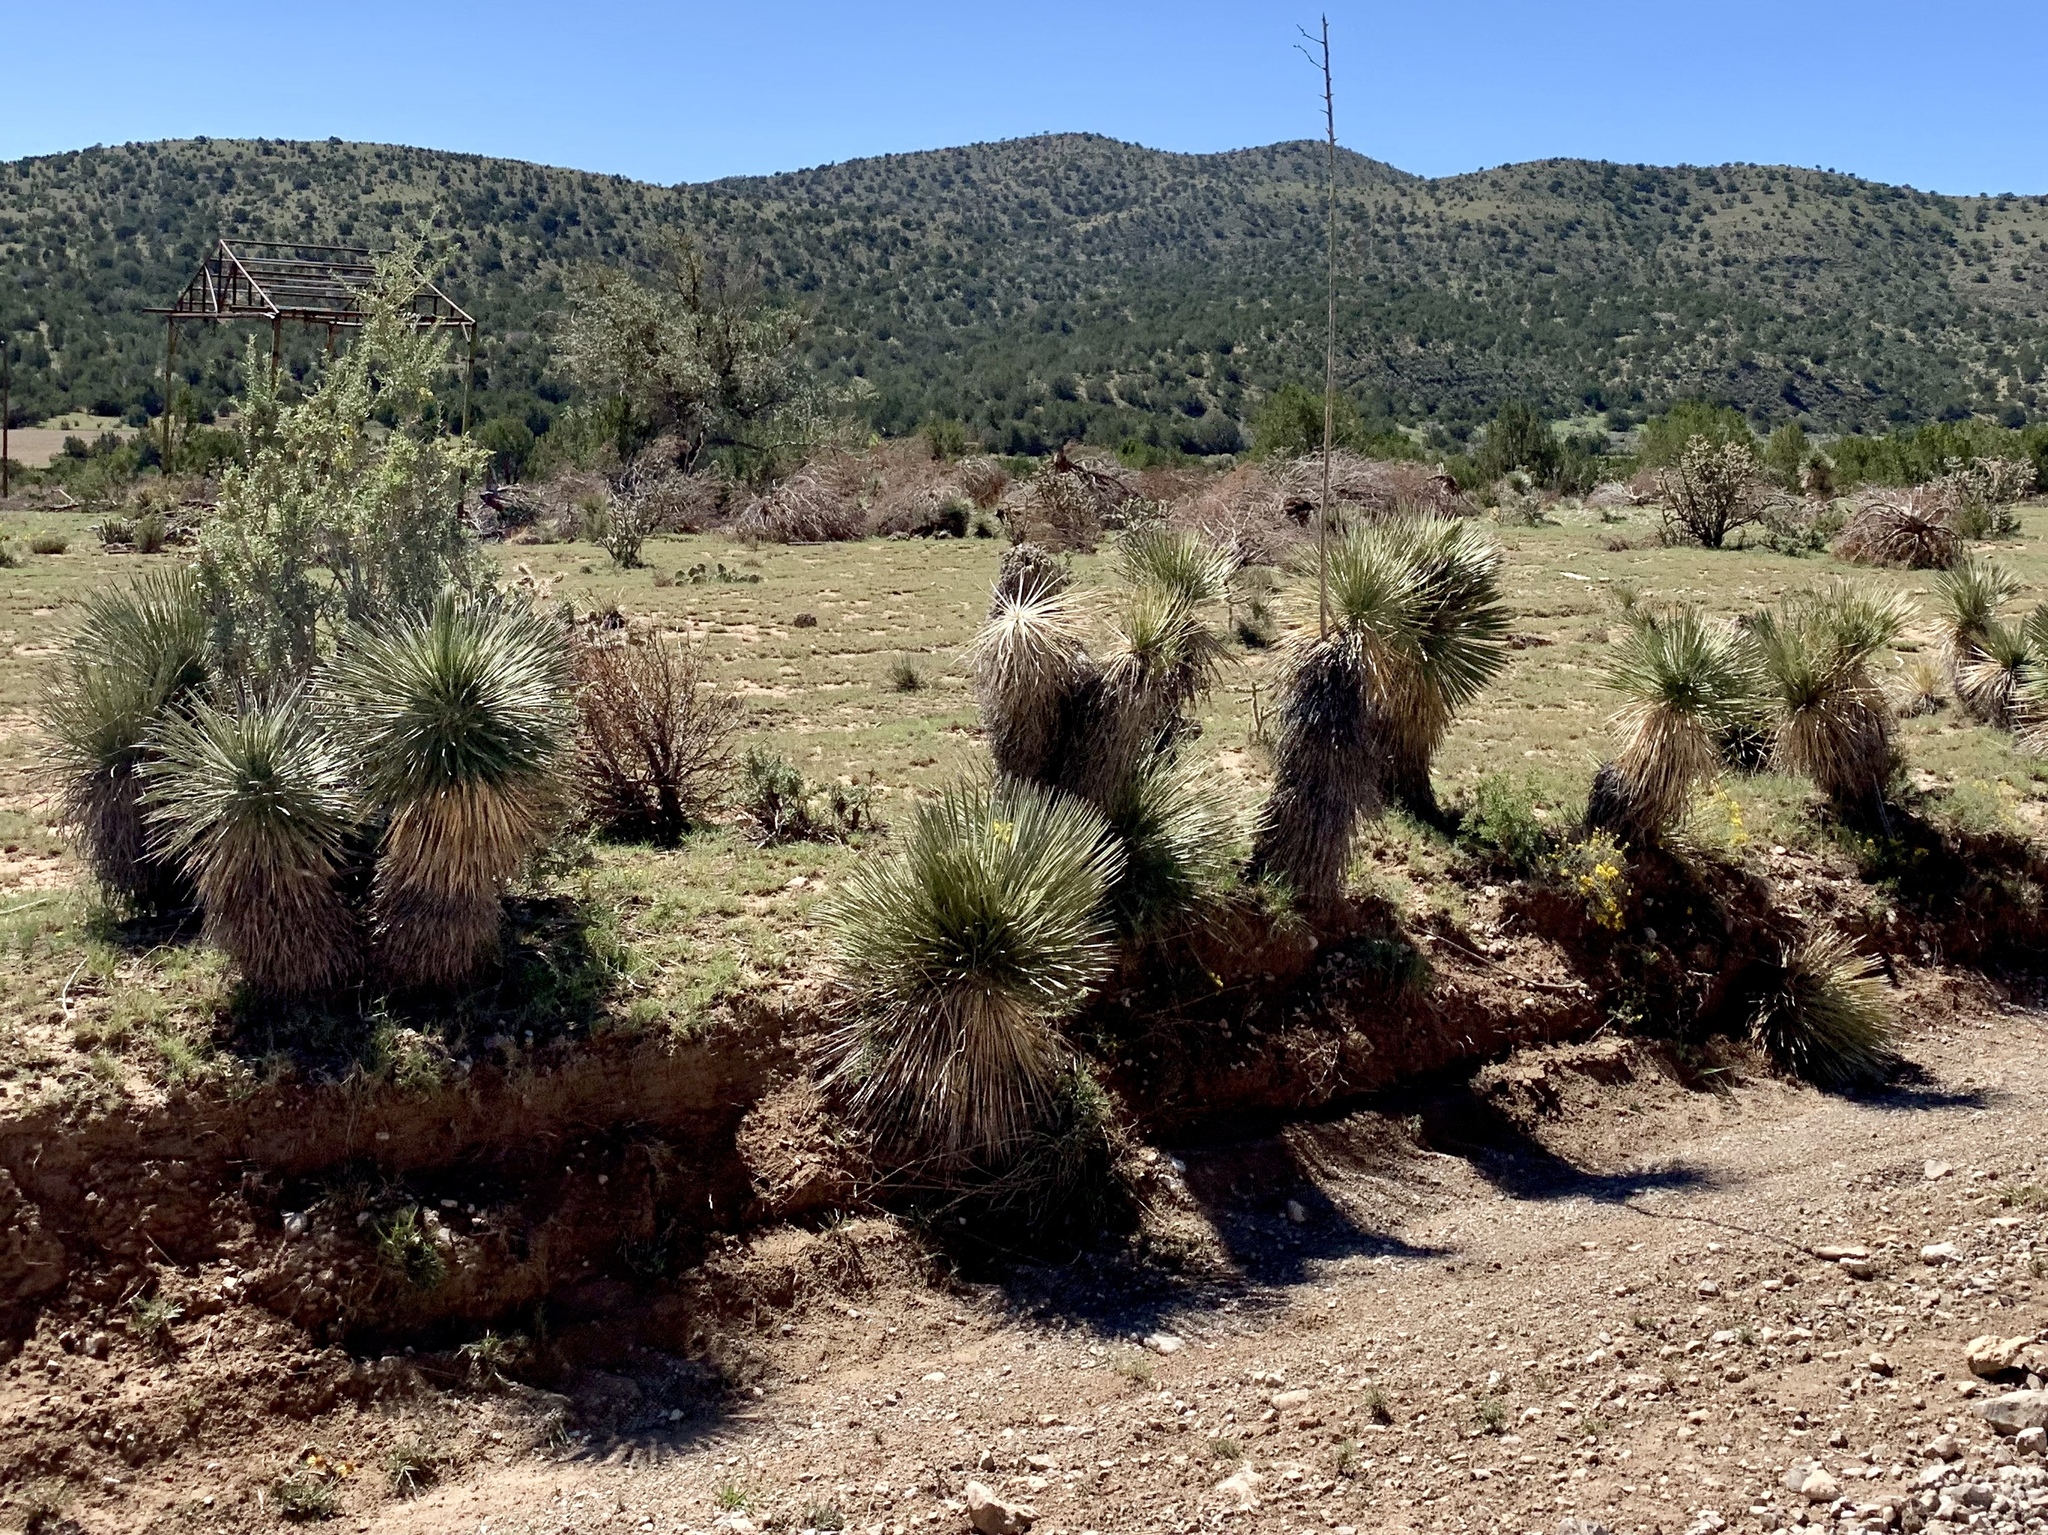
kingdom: Plantae
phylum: Tracheophyta
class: Liliopsida
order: Asparagales
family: Asparagaceae
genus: Yucca
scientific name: Yucca elata
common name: Palmella
